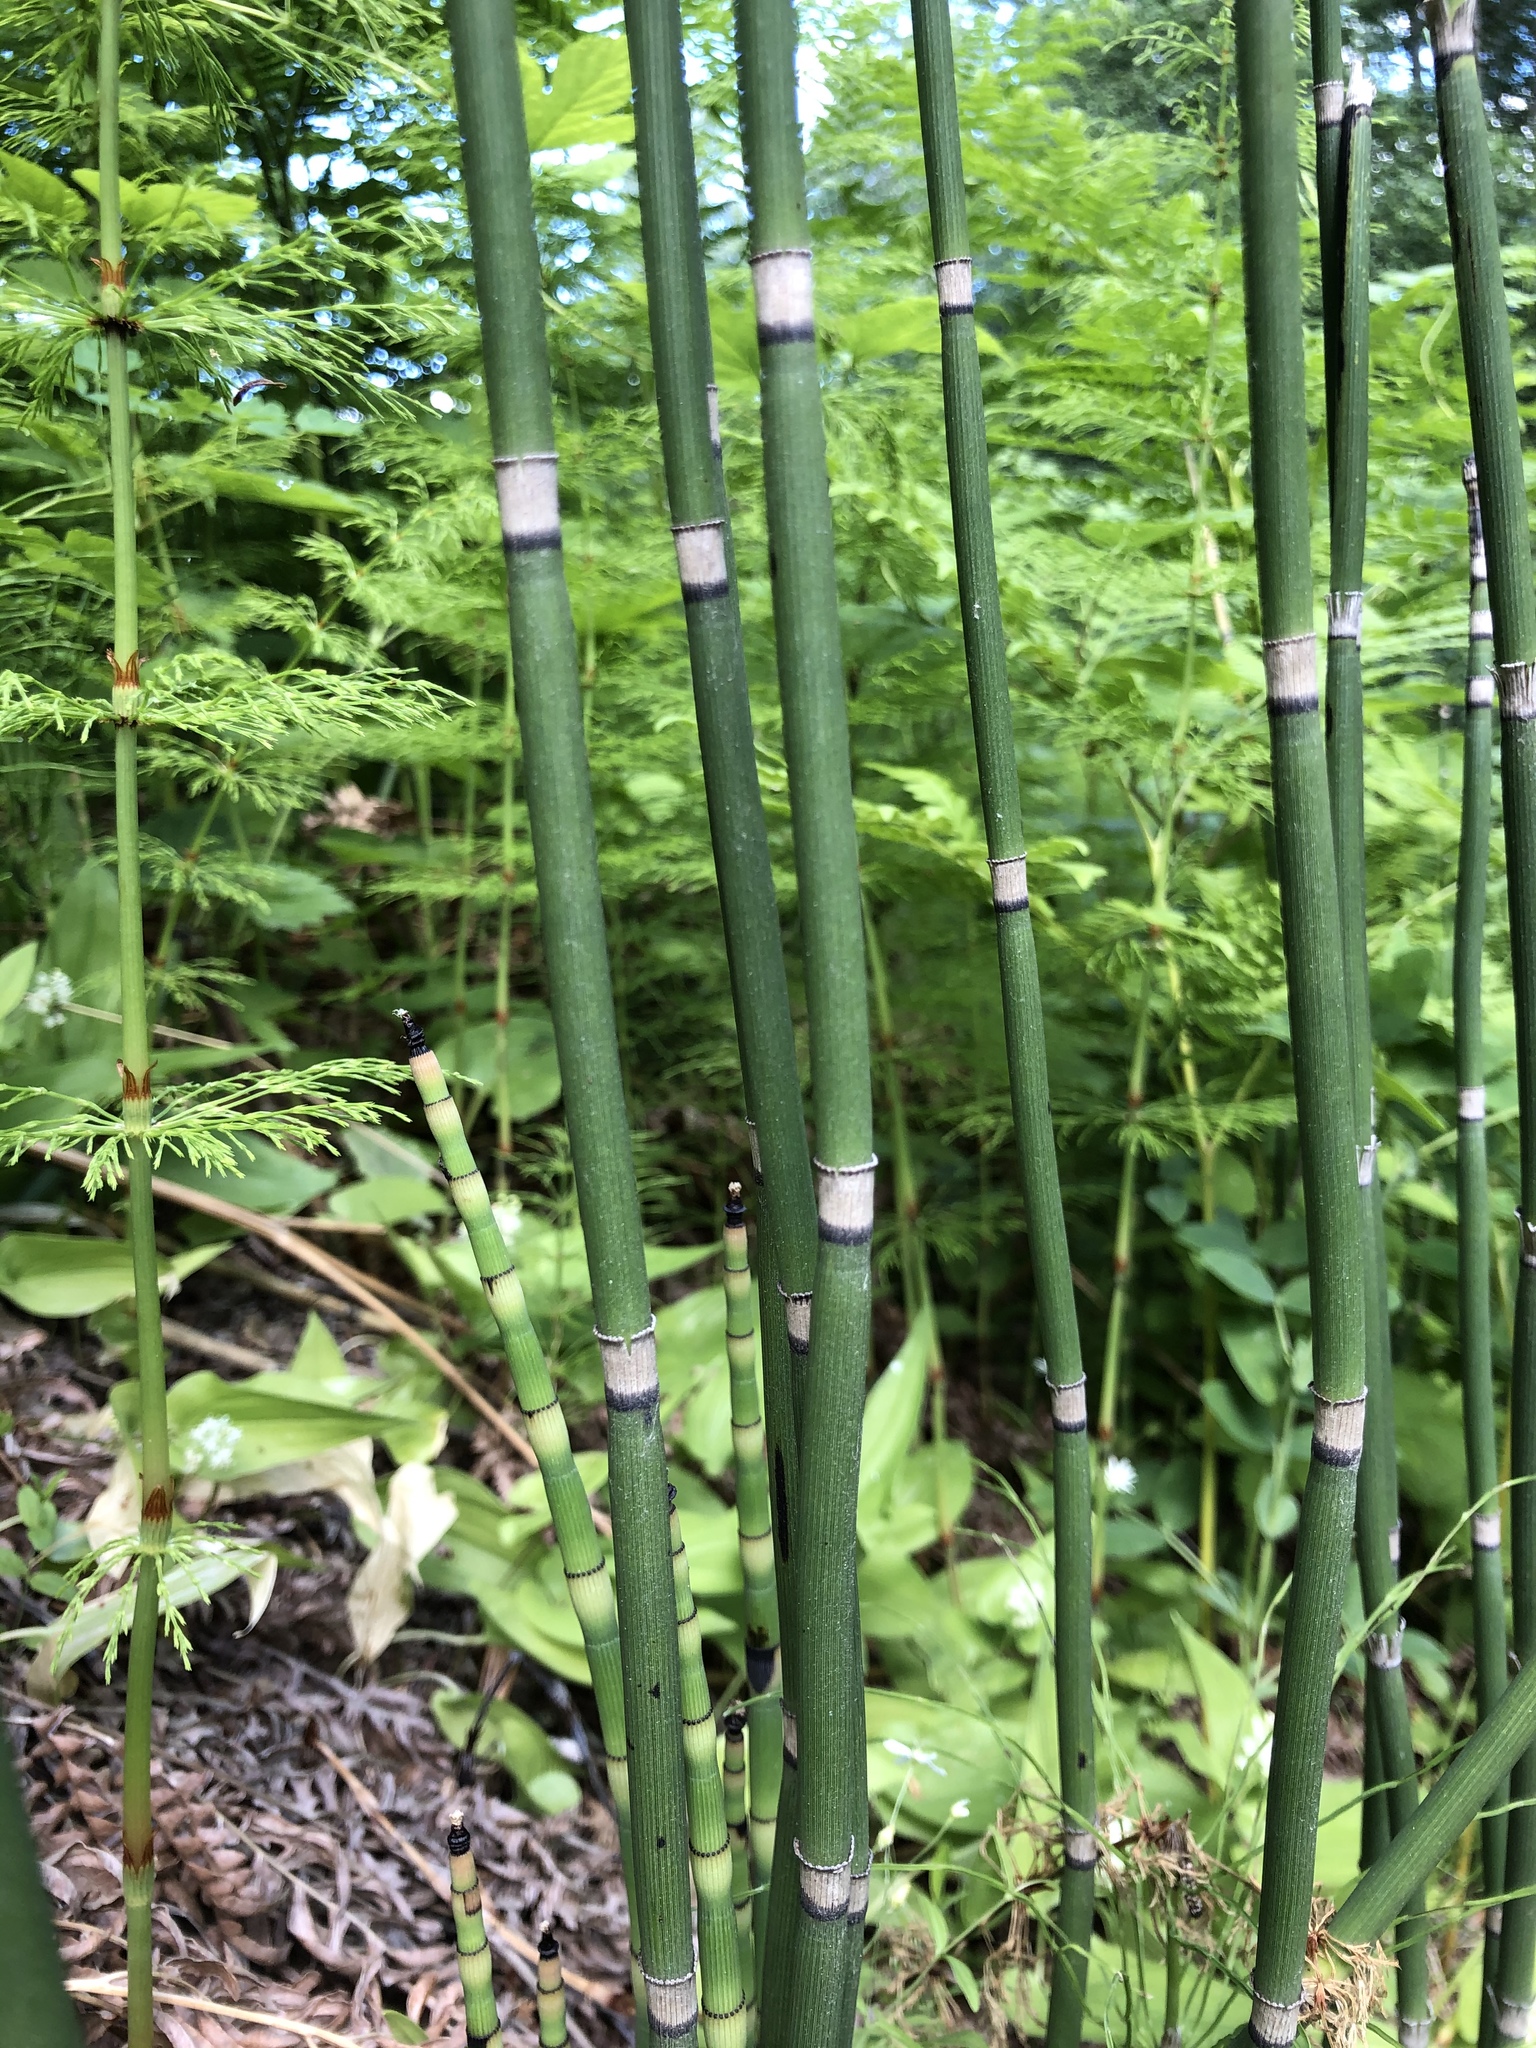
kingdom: Plantae
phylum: Tracheophyta
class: Polypodiopsida
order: Equisetales
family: Equisetaceae
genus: Equisetum
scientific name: Equisetum hyemale
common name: Rough horsetail
